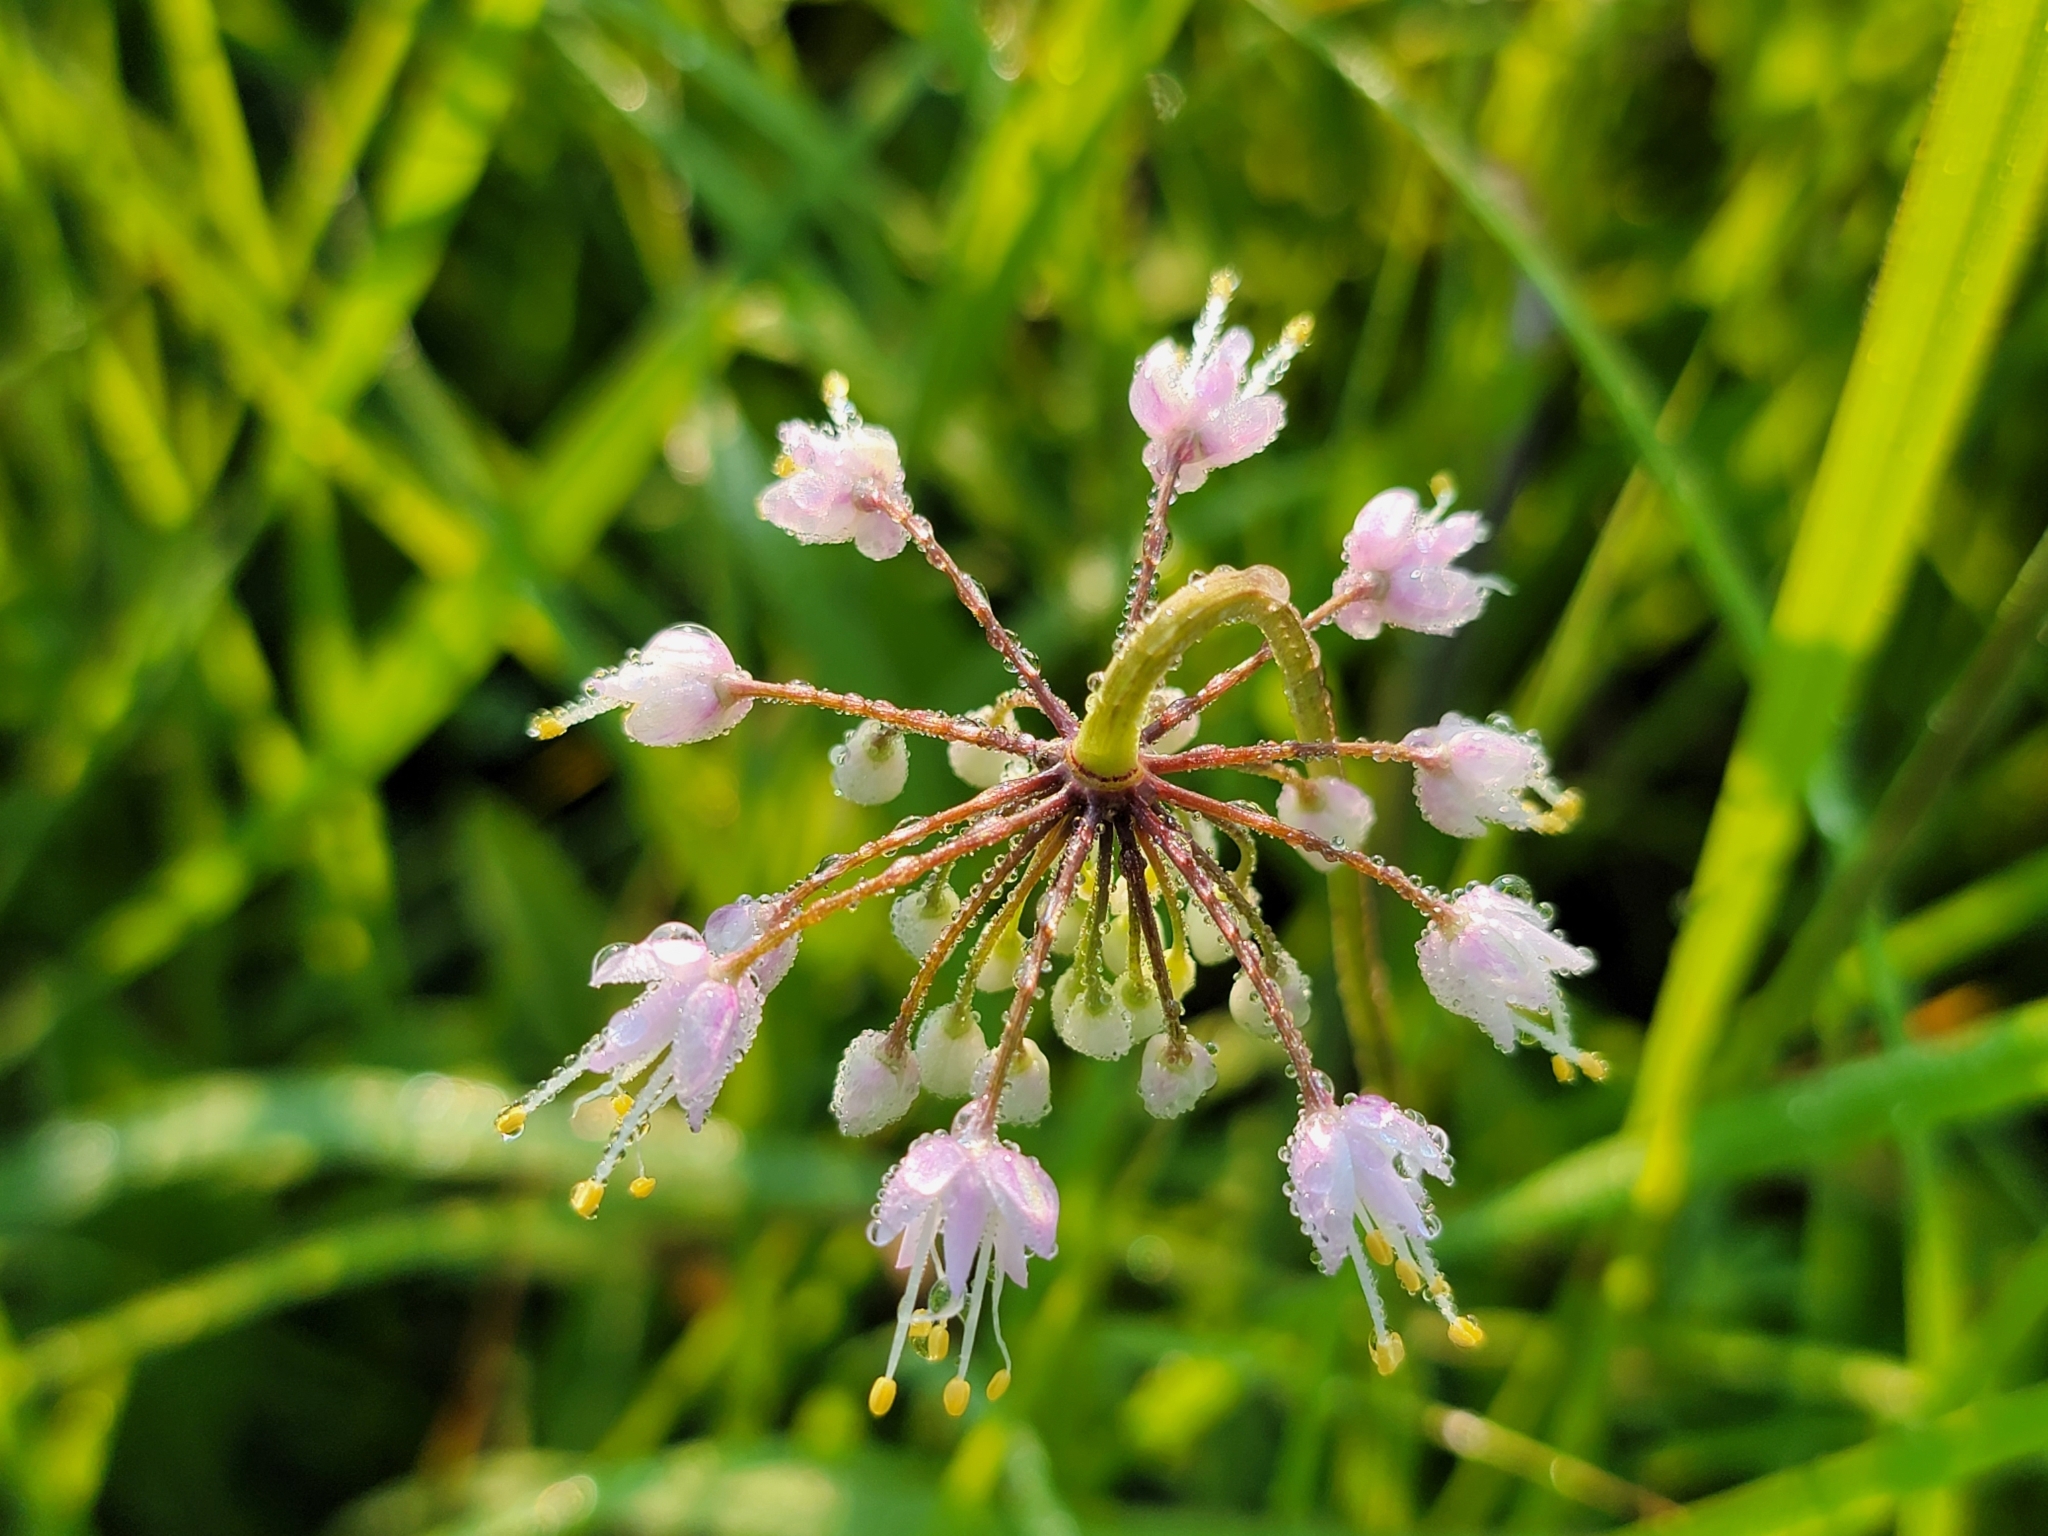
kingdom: Plantae
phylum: Tracheophyta
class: Liliopsida
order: Asparagales
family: Amaryllidaceae
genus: Allium
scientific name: Allium cernuum
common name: Nodding onion
